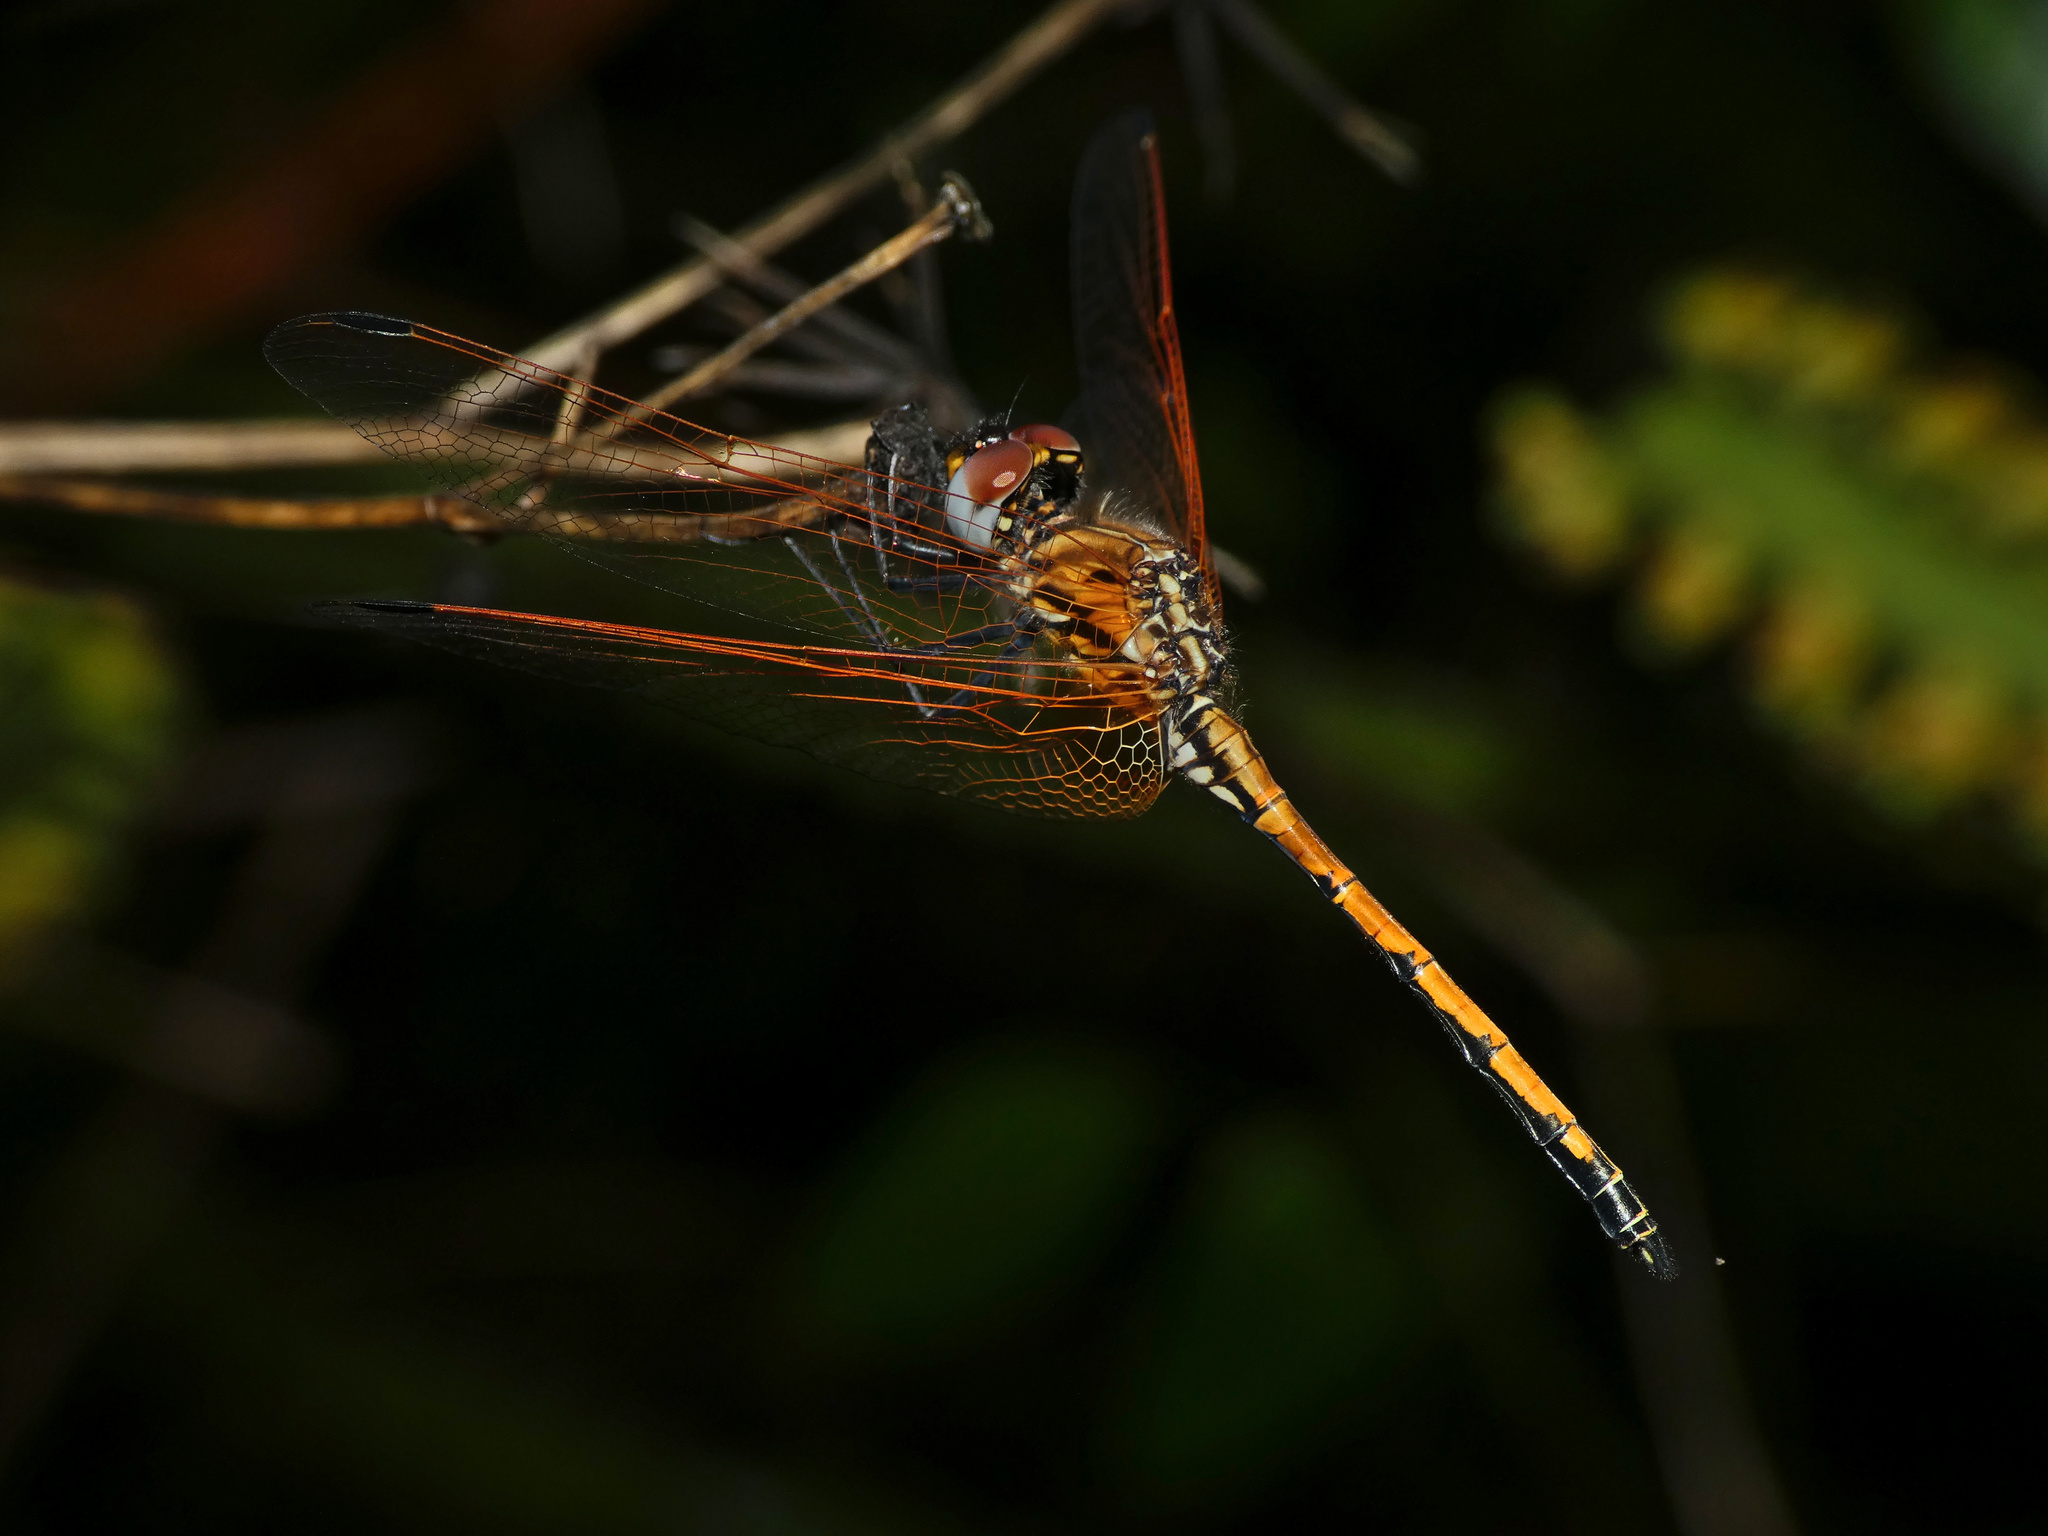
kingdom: Animalia
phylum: Arthropoda
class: Insecta
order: Odonata
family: Libellulidae
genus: Trithemis
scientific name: Trithemis arteriosa
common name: Red-veined dropwing
